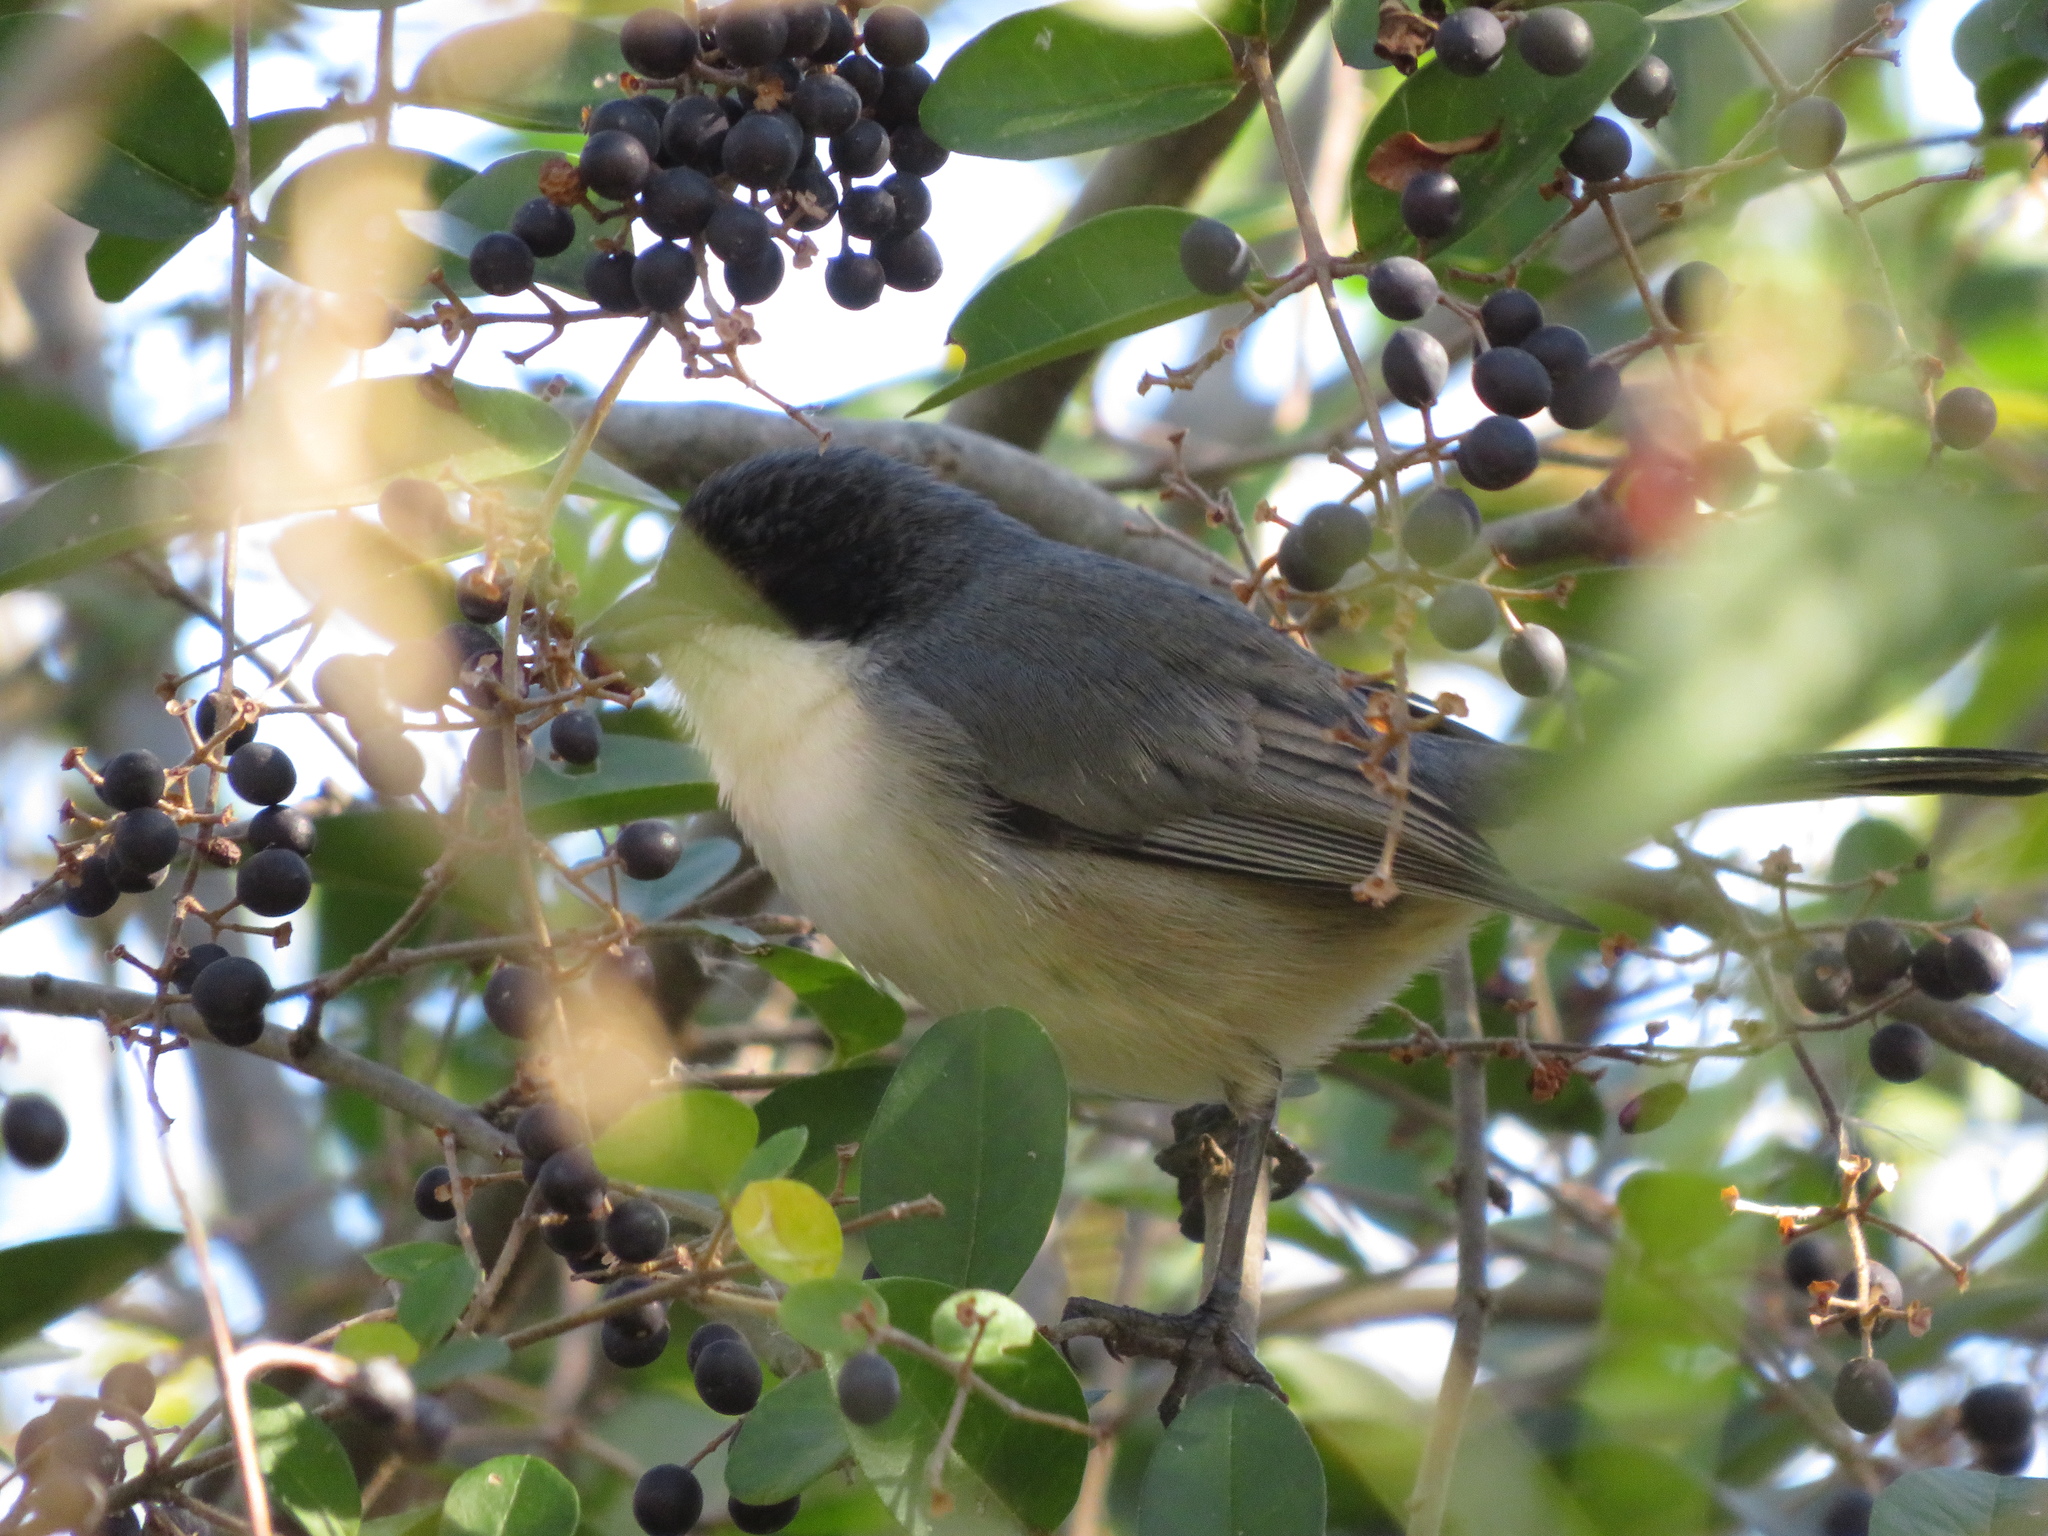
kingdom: Animalia
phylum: Chordata
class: Aves
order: Passeriformes
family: Thraupidae
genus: Microspingus
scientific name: Microspingus melanoleucus
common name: Black-capped warbling-finch
